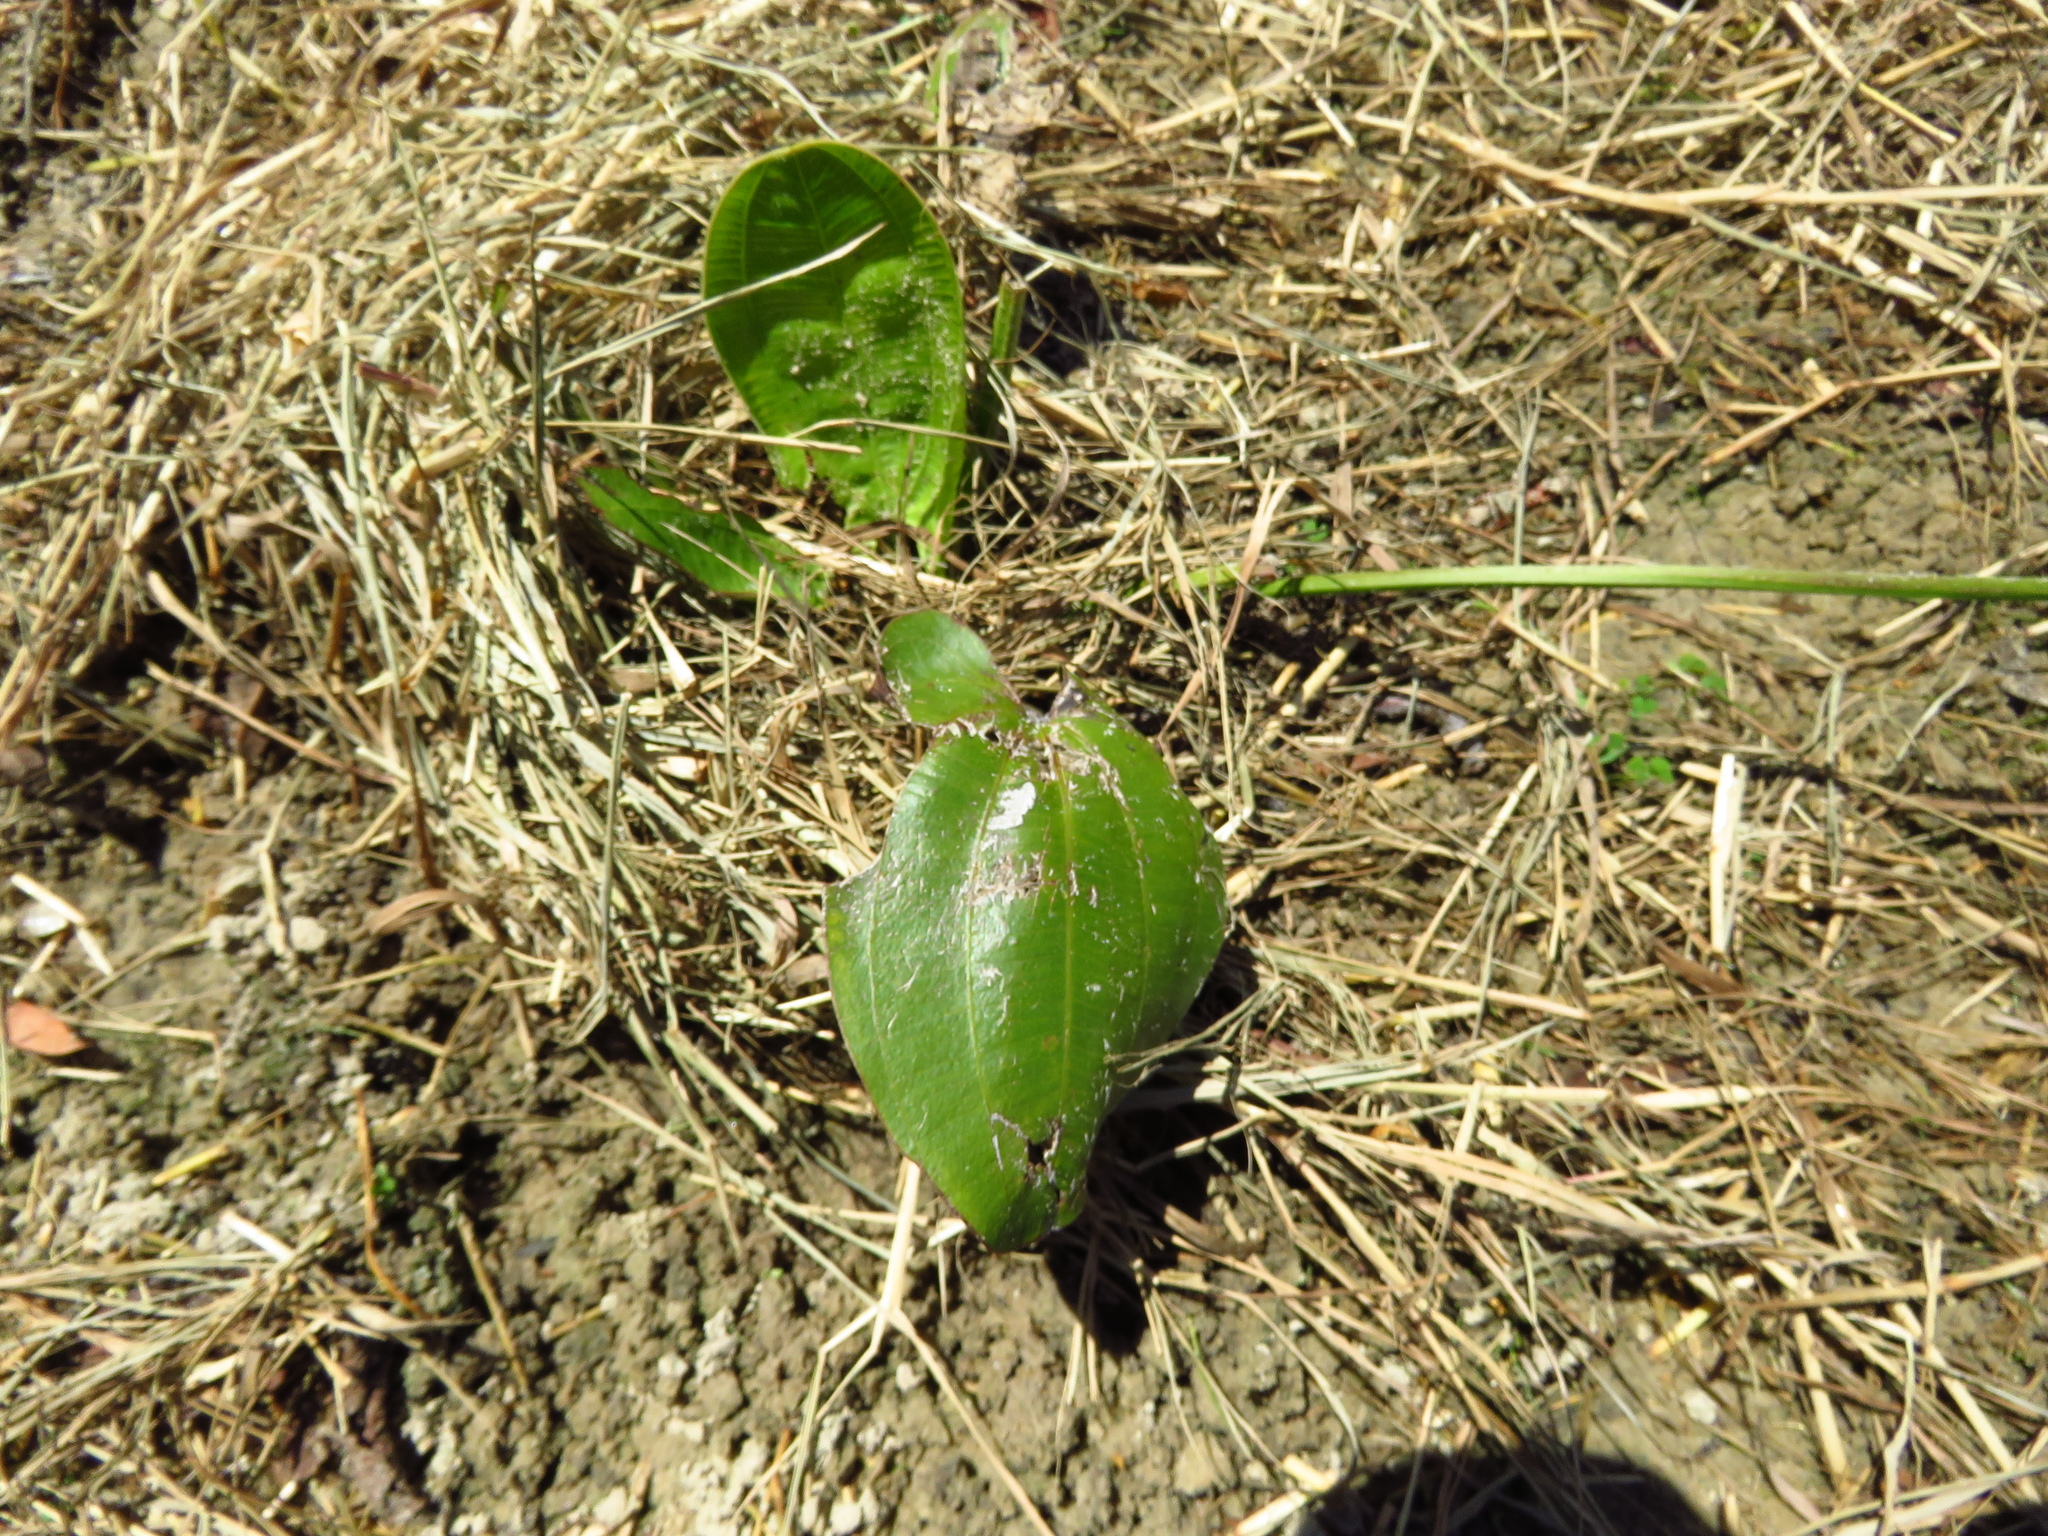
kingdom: Plantae
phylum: Tracheophyta
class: Liliopsida
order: Alismatales
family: Alismataceae
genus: Aquarius
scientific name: Aquarius cordifolius
